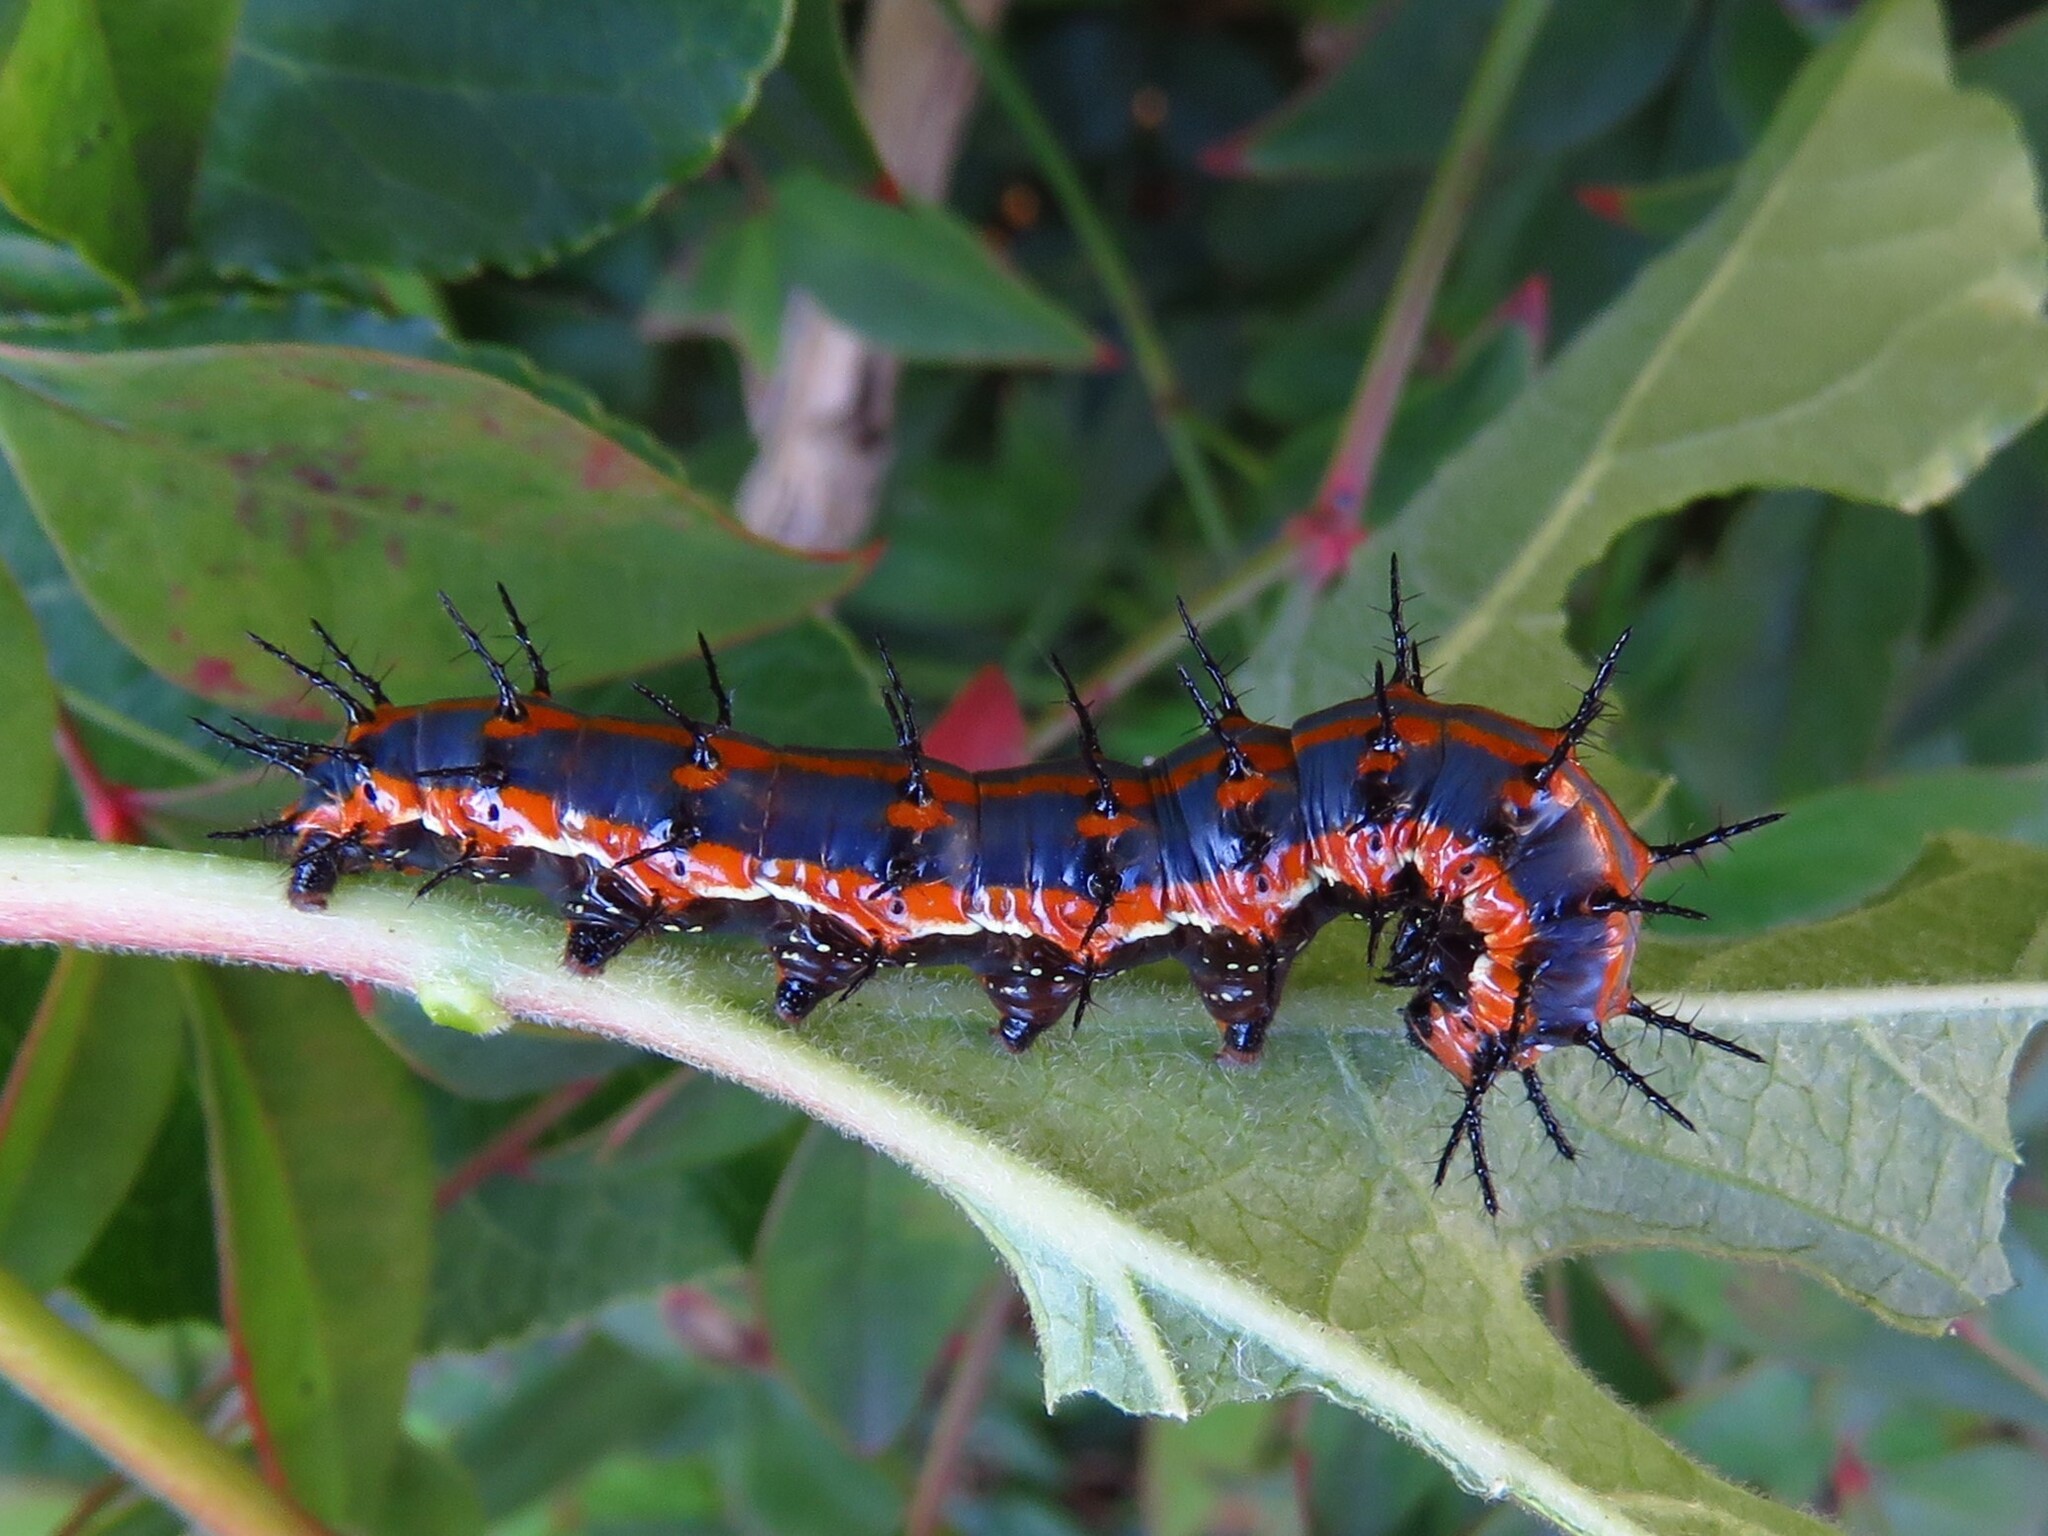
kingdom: Animalia
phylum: Arthropoda
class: Insecta
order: Lepidoptera
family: Nymphalidae
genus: Dione
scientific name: Dione vanillae
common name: Gulf fritillary
